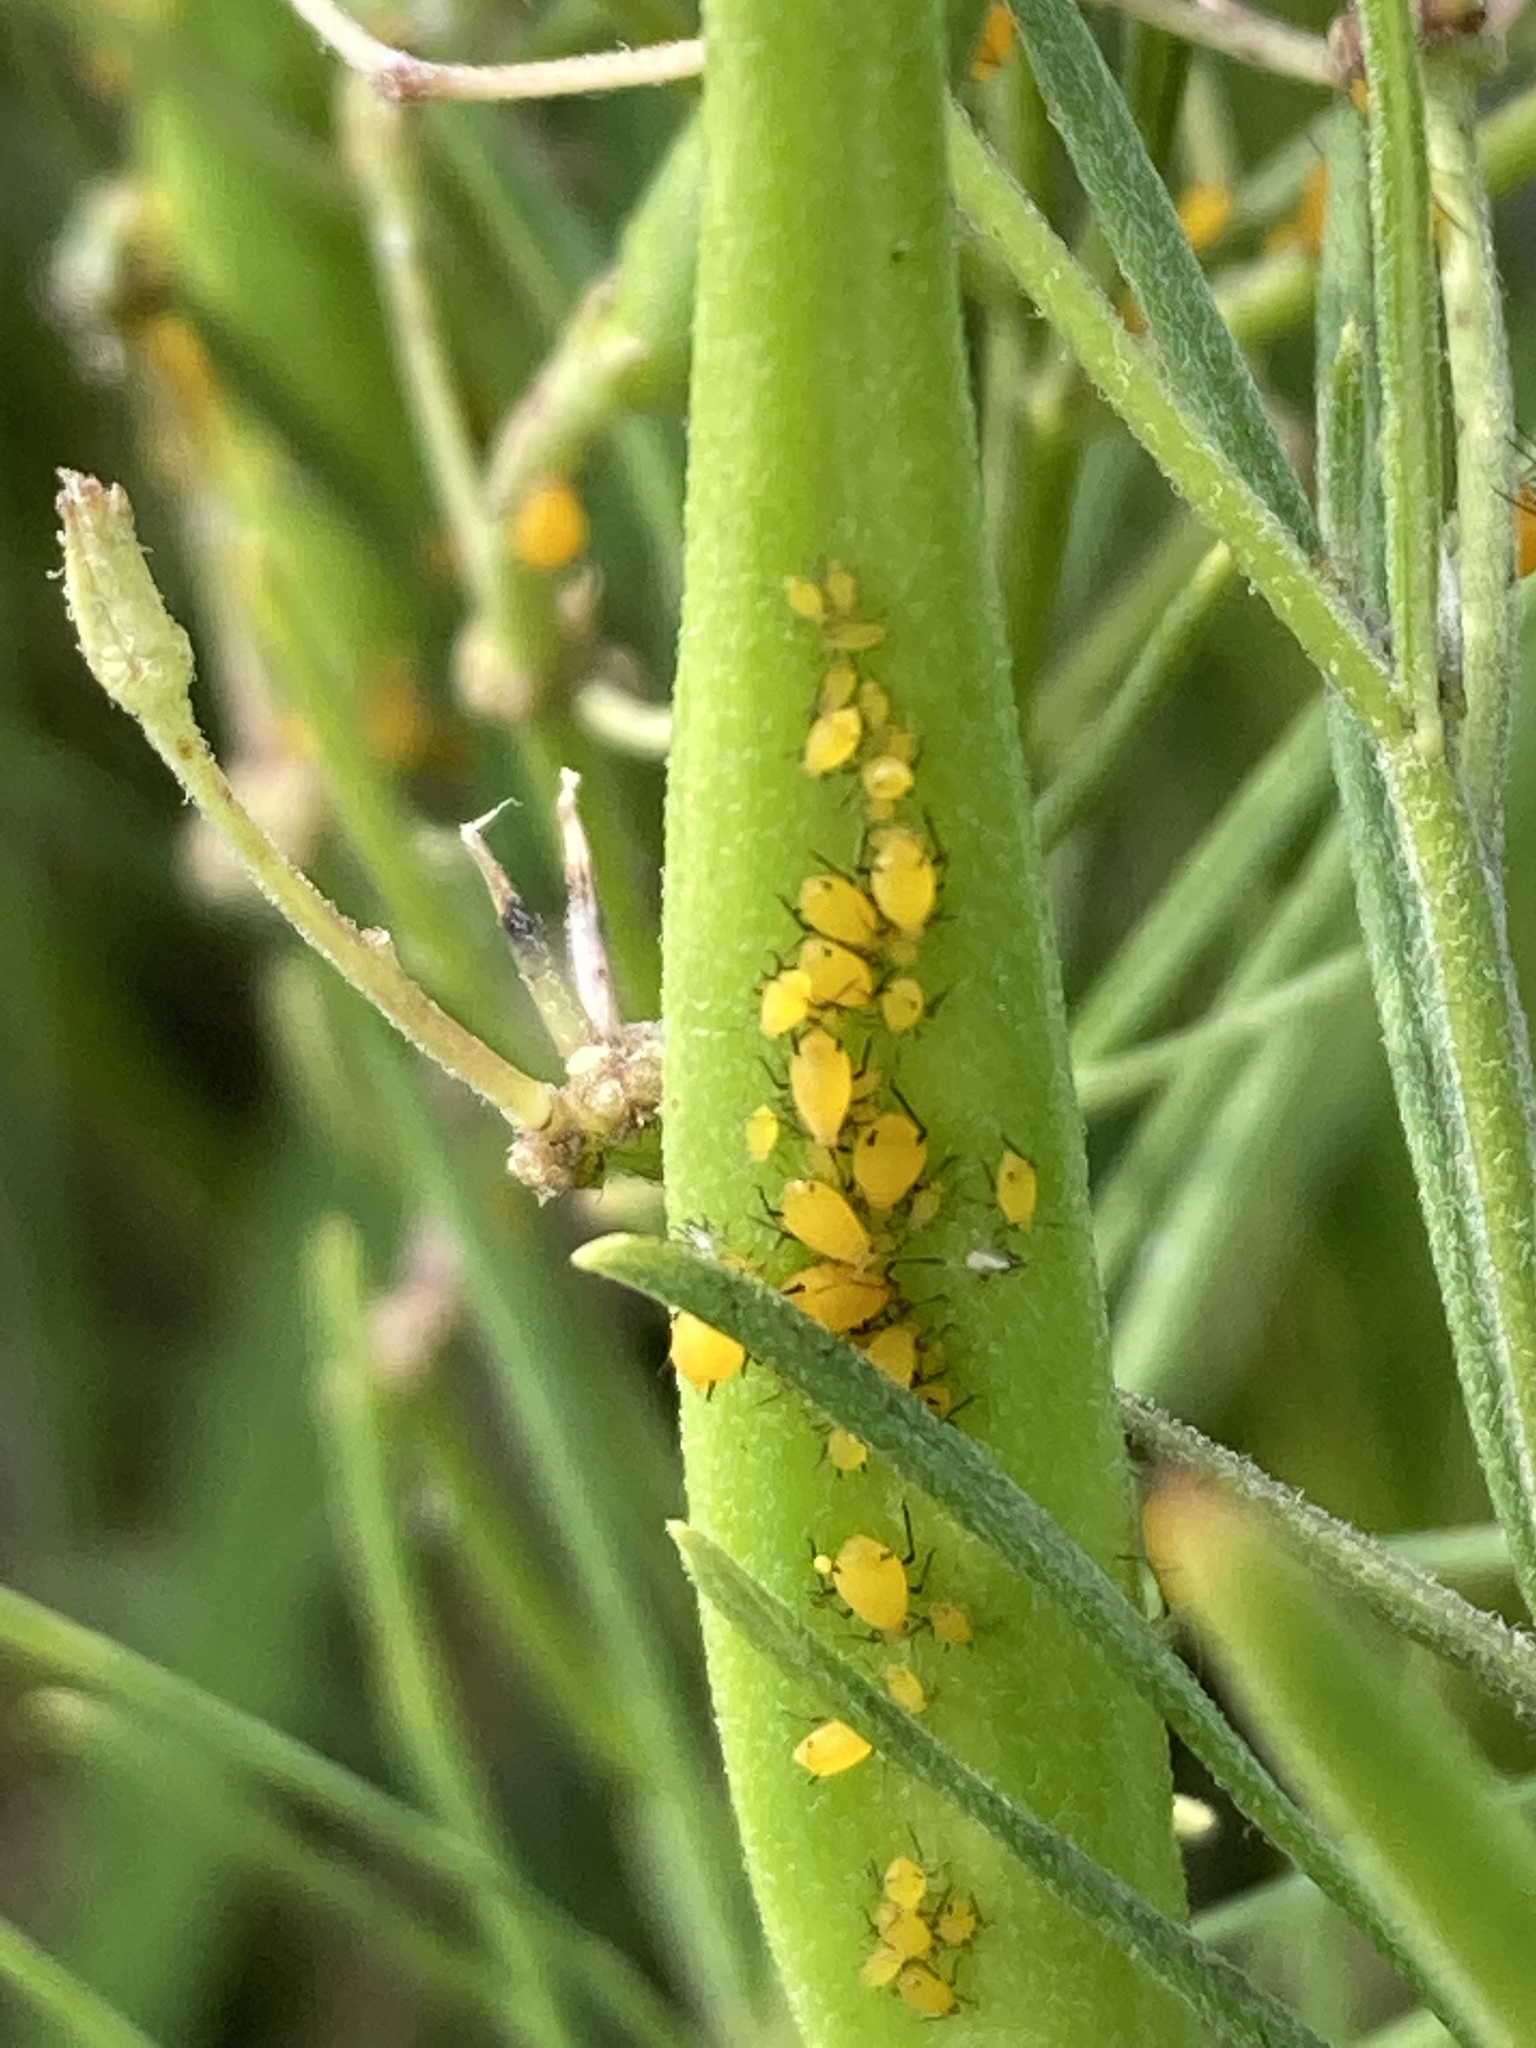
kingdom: Animalia
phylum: Arthropoda
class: Insecta
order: Hemiptera
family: Aphididae
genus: Aphis
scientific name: Aphis nerii
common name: Oleander aphid
